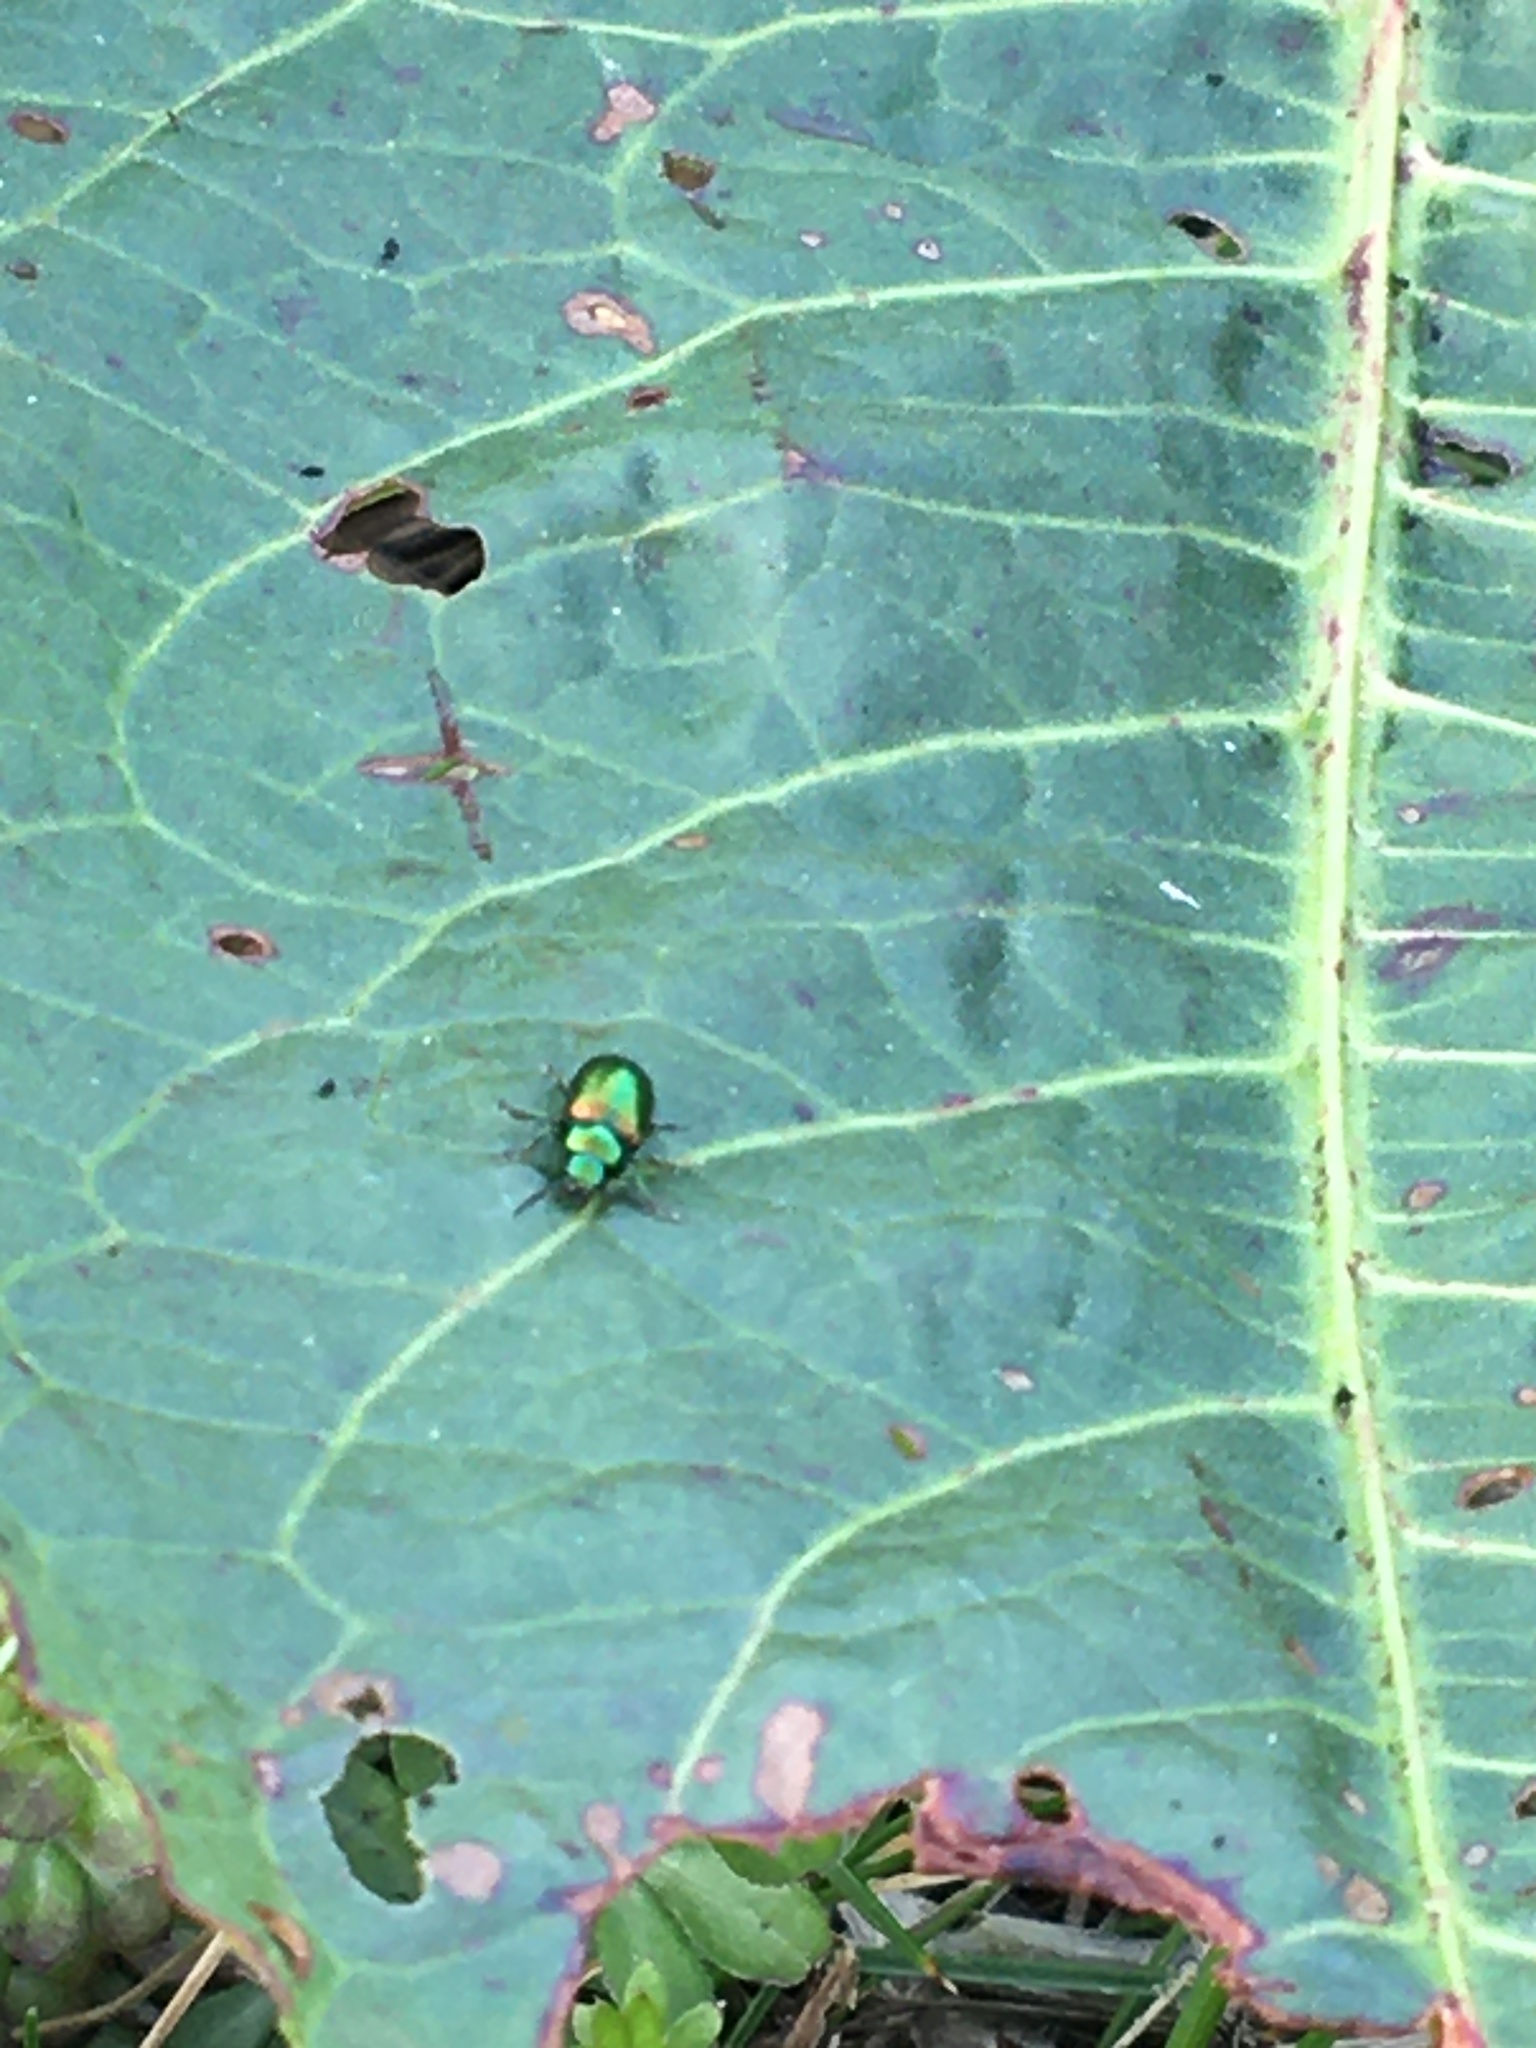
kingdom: Animalia
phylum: Arthropoda
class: Insecta
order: Coleoptera
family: Chrysomelidae
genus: Gastrophysa
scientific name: Gastrophysa viridula
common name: Green dock beetle
